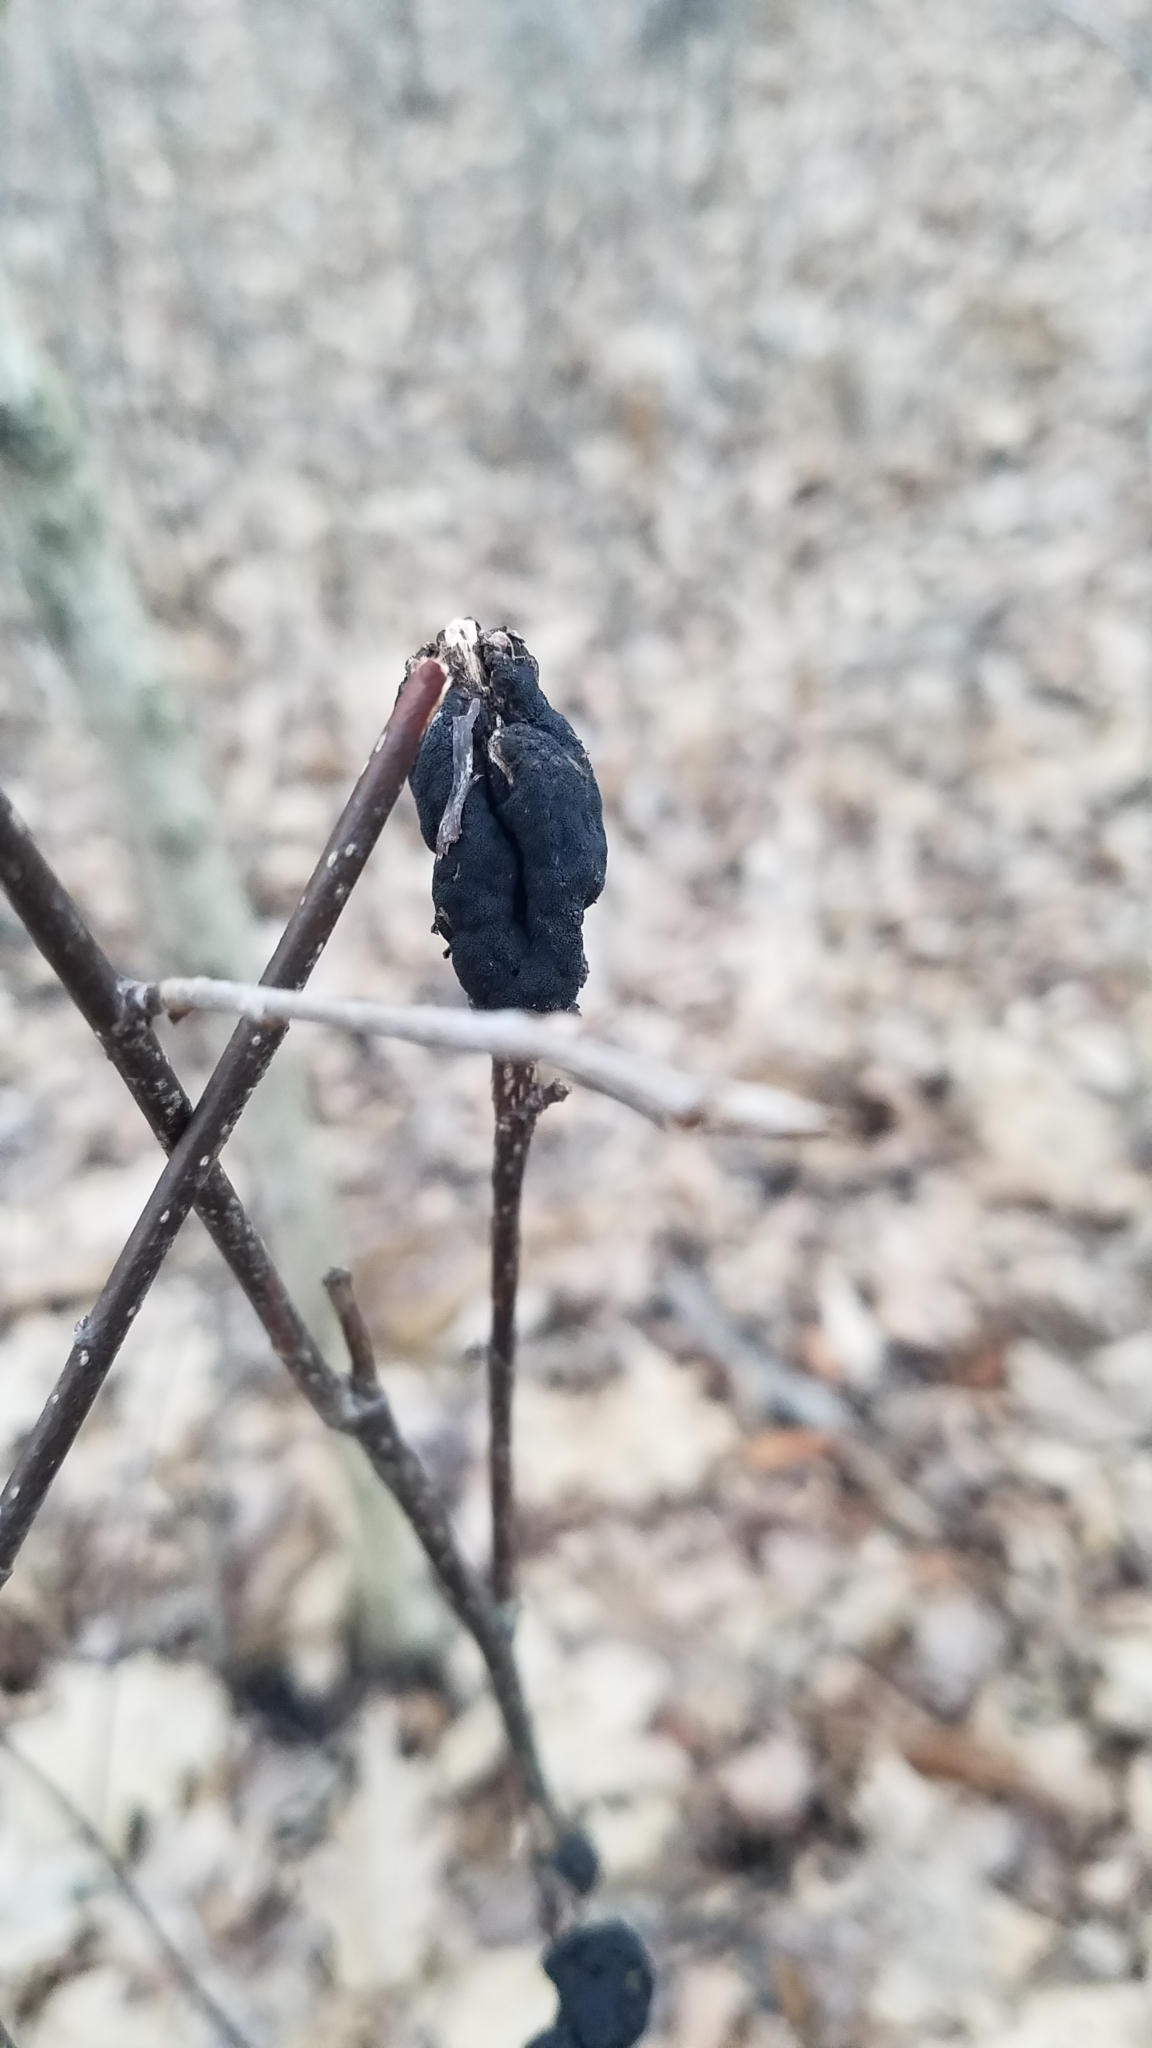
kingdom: Fungi
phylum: Ascomycota
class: Dothideomycetes
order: Venturiales
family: Venturiaceae
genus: Apiosporina
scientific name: Apiosporina morbosa
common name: Black knot
